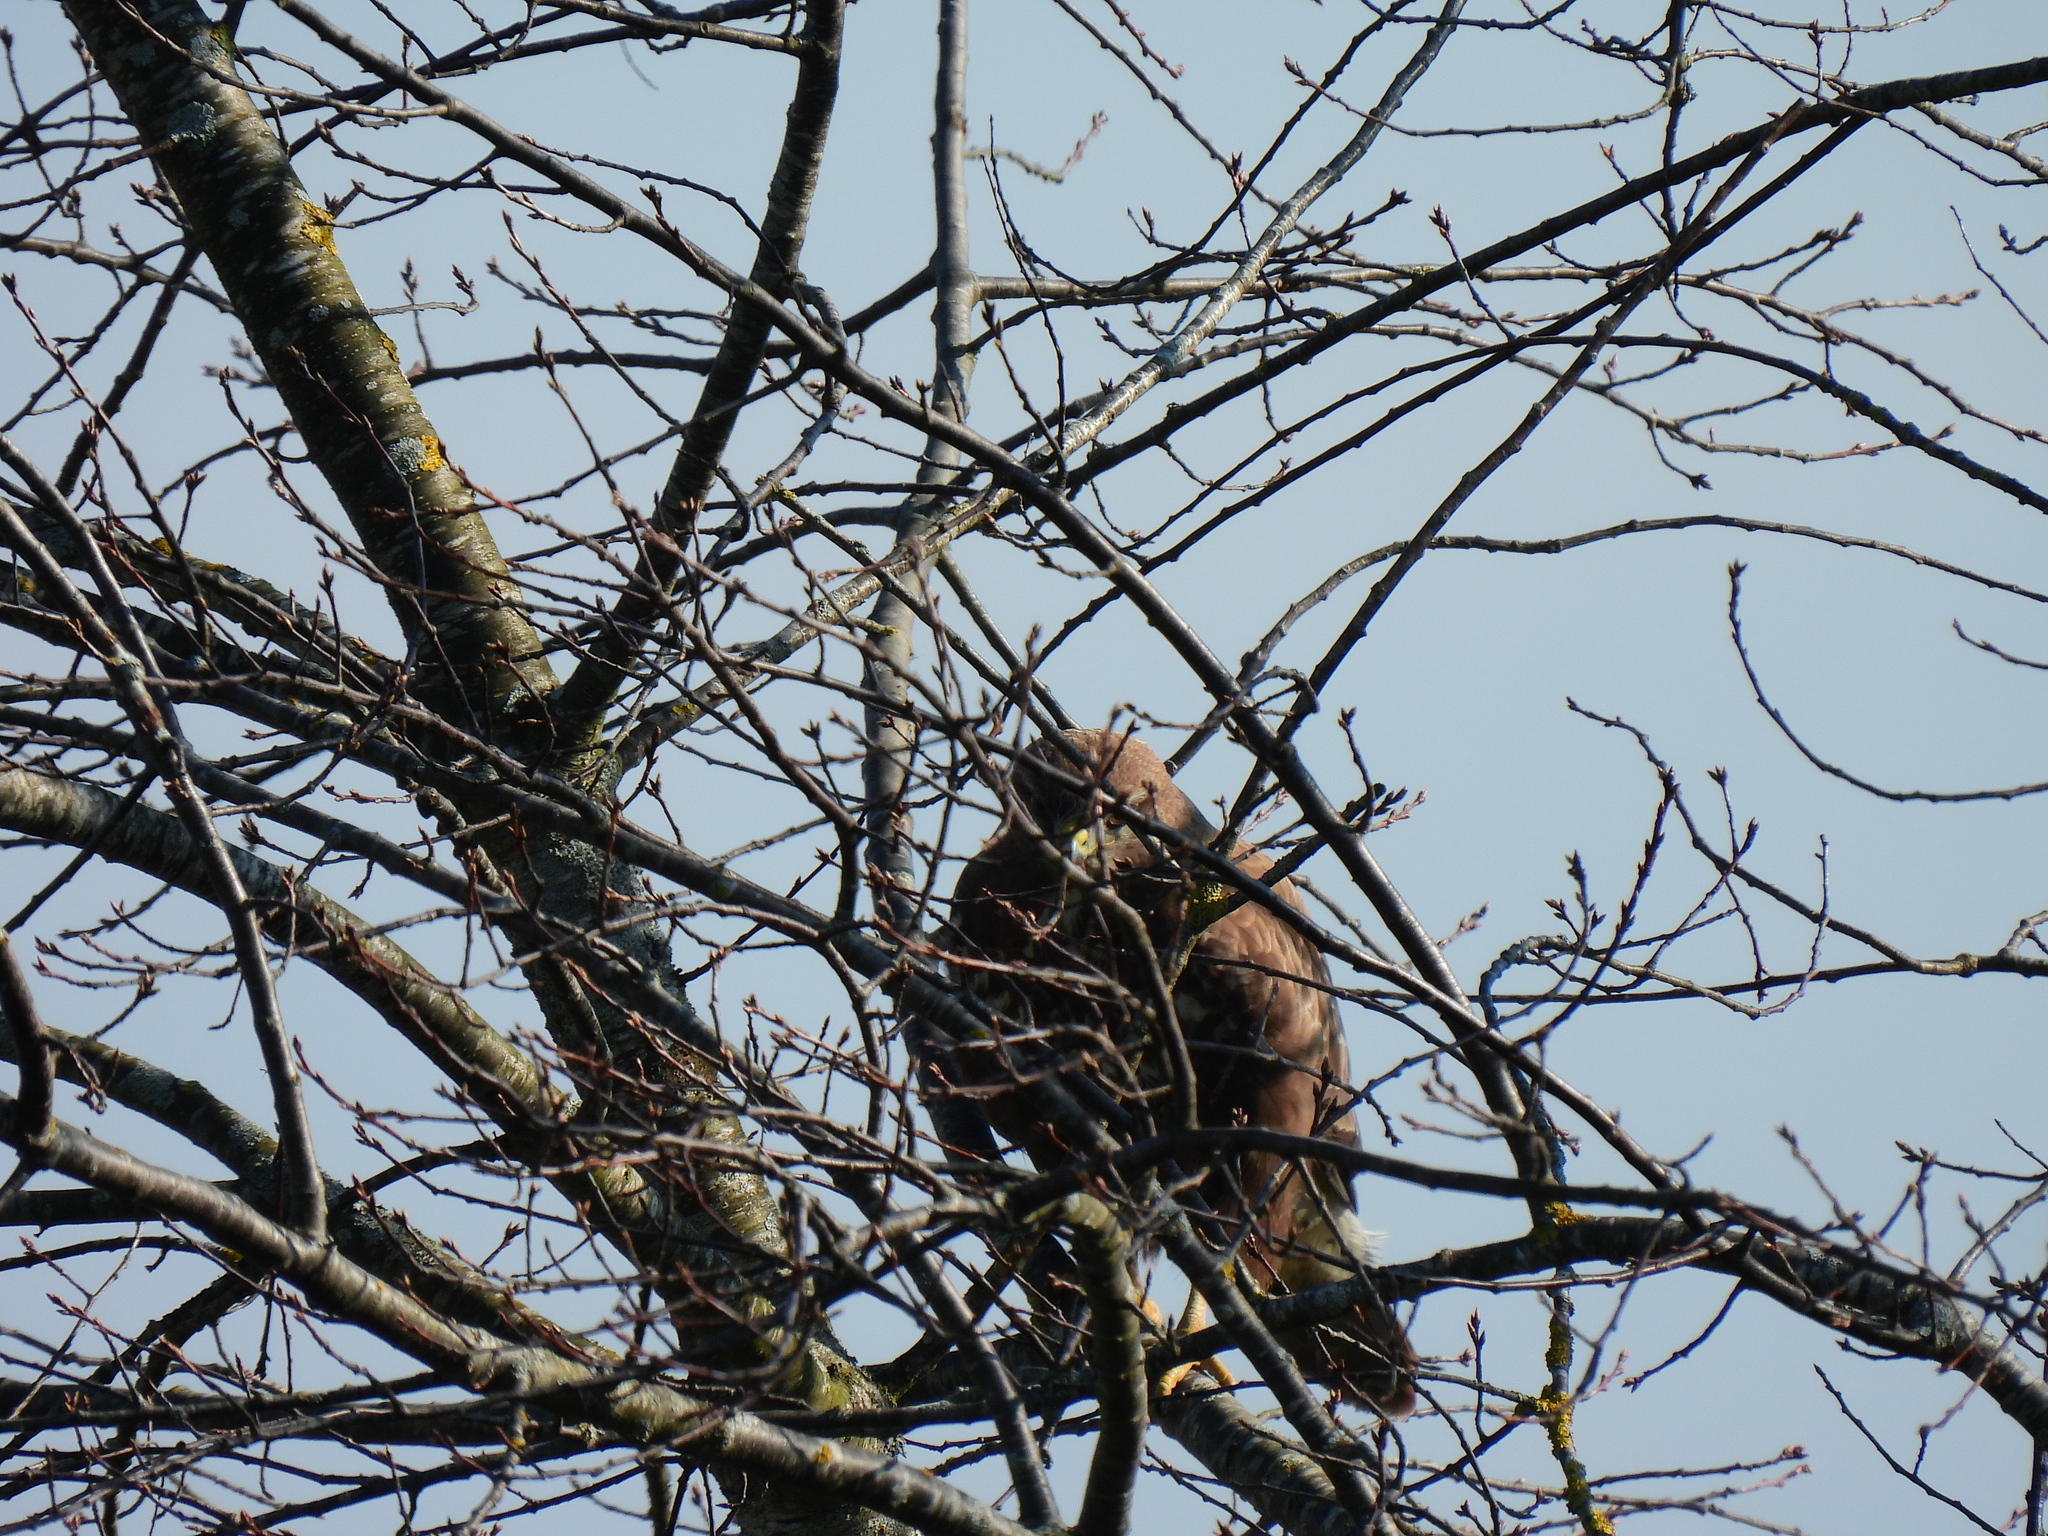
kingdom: Animalia
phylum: Chordata
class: Aves
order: Accipitriformes
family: Accipitridae
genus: Buteo
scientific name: Buteo buteo
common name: Common buzzard
